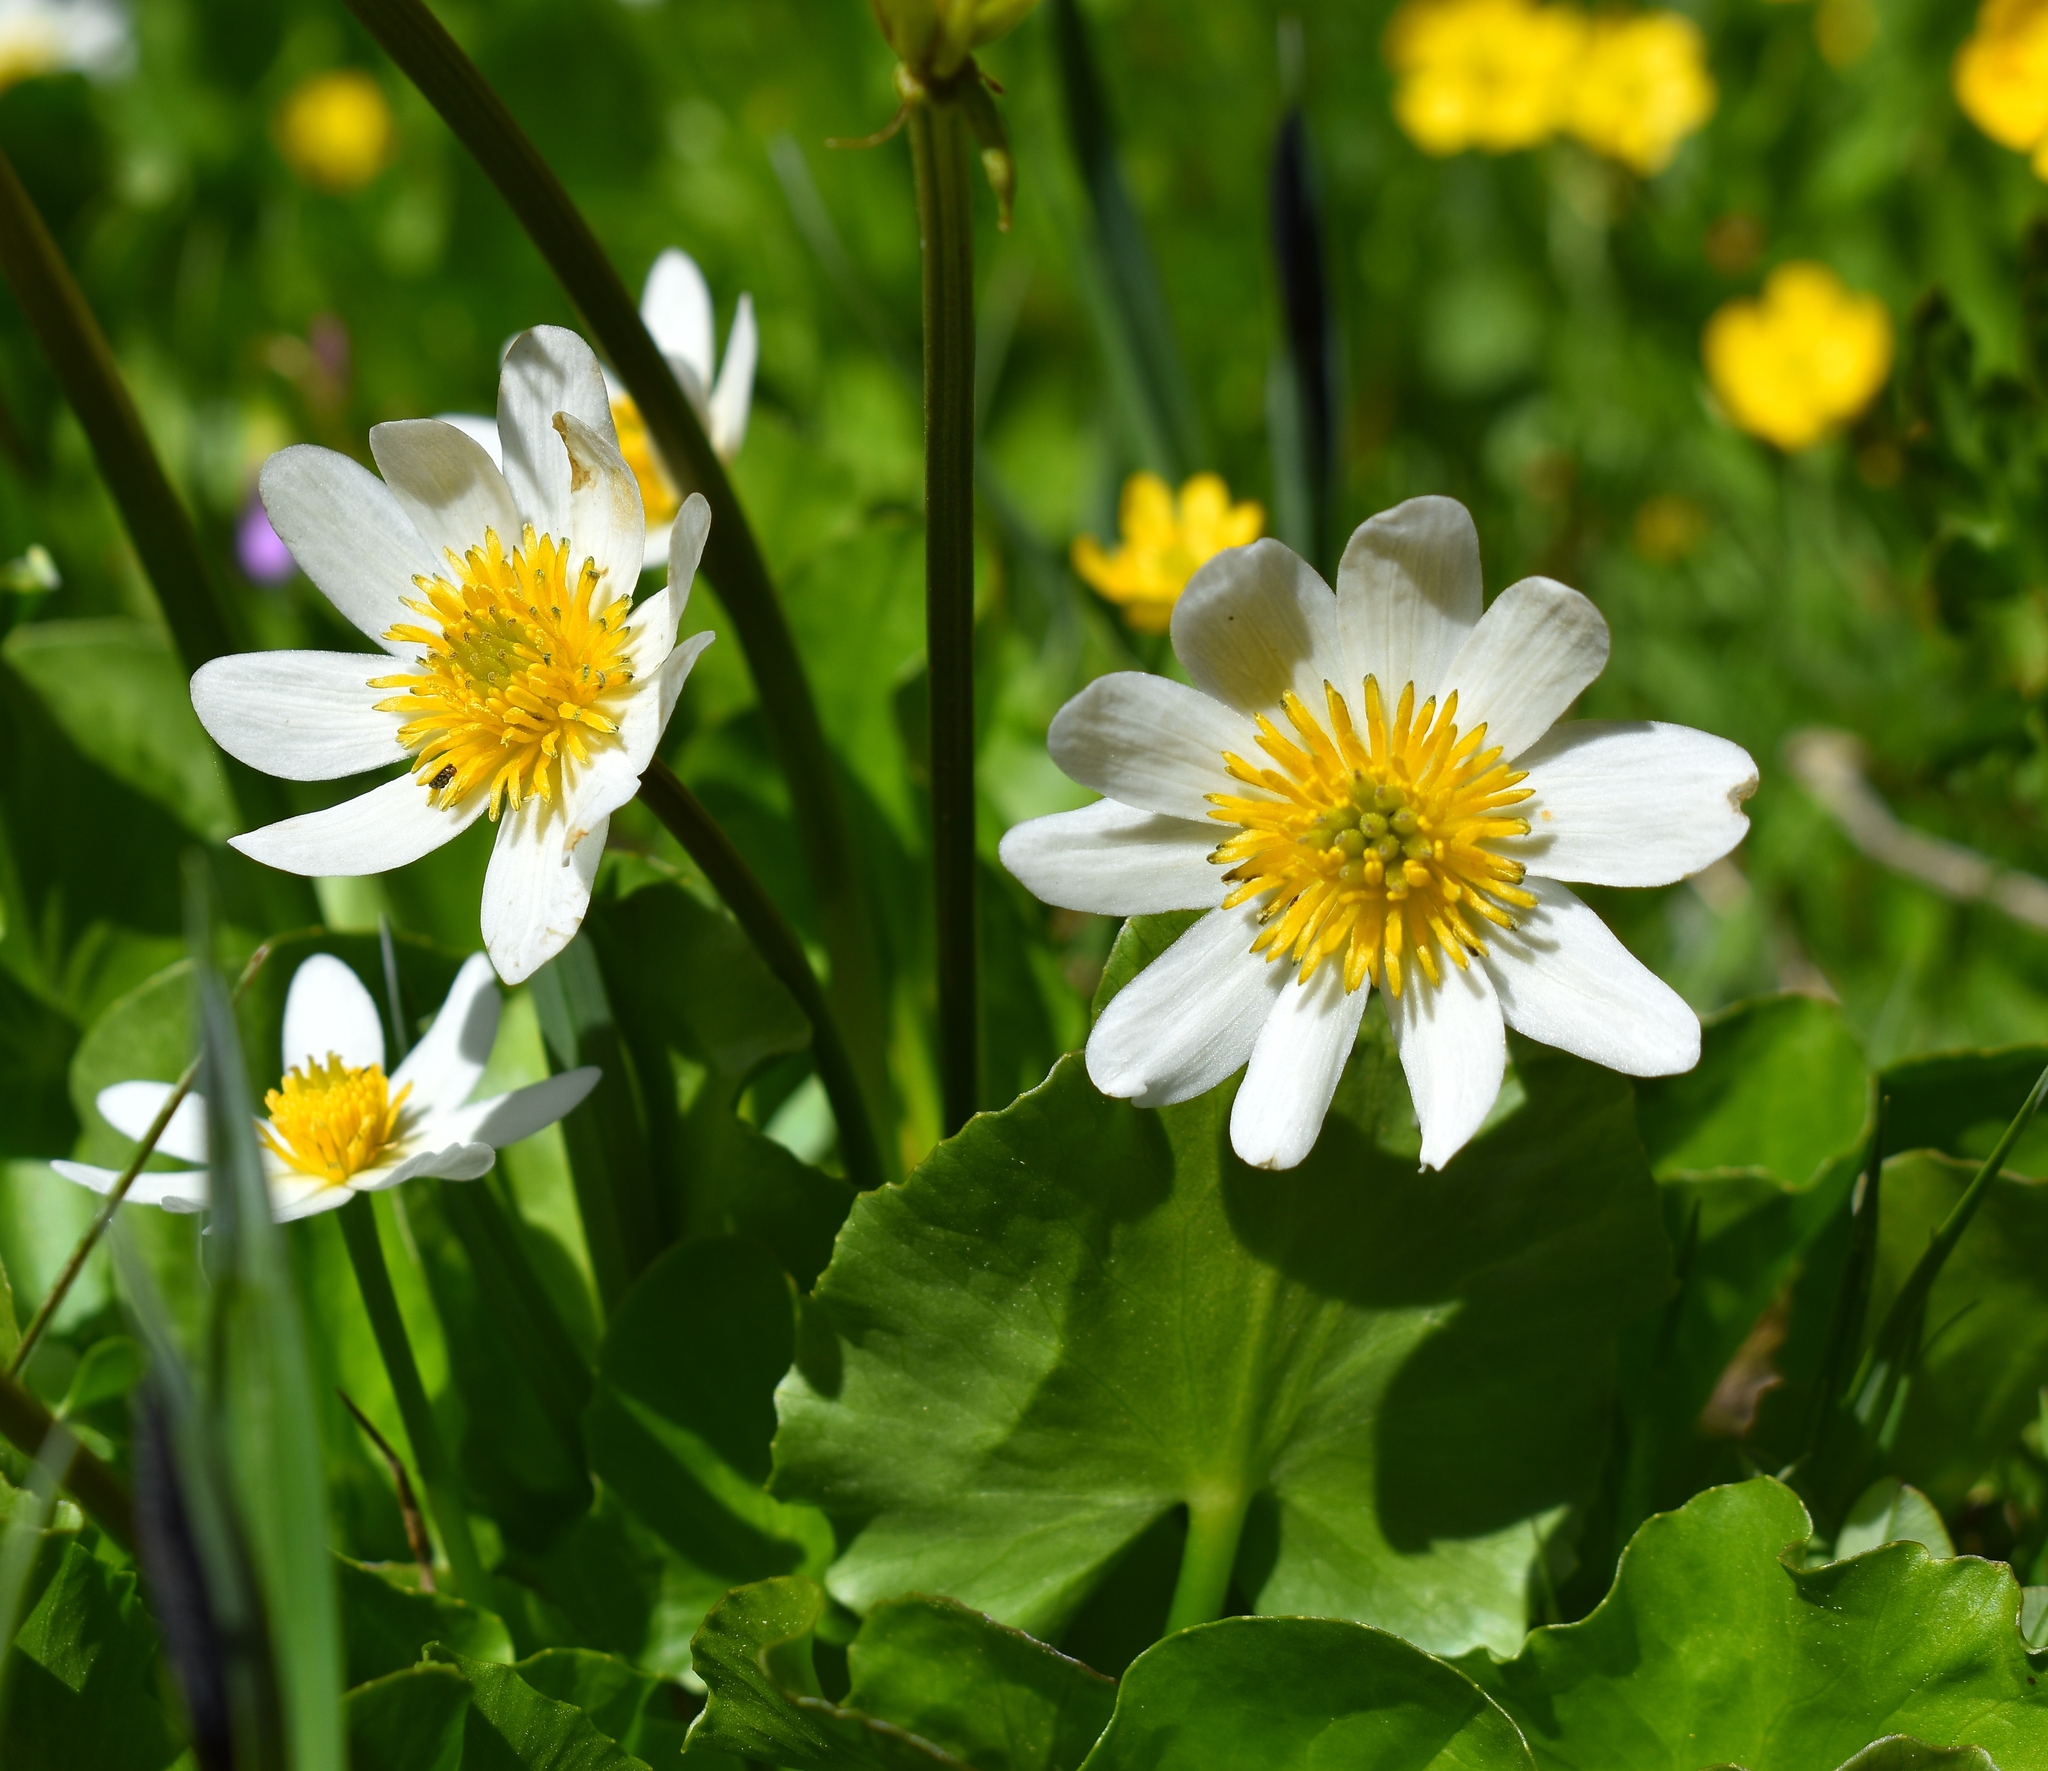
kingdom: Plantae
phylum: Tracheophyta
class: Magnoliopsida
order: Ranunculales
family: Ranunculaceae
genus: Caltha
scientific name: Caltha leptosepala
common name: Elkslip
